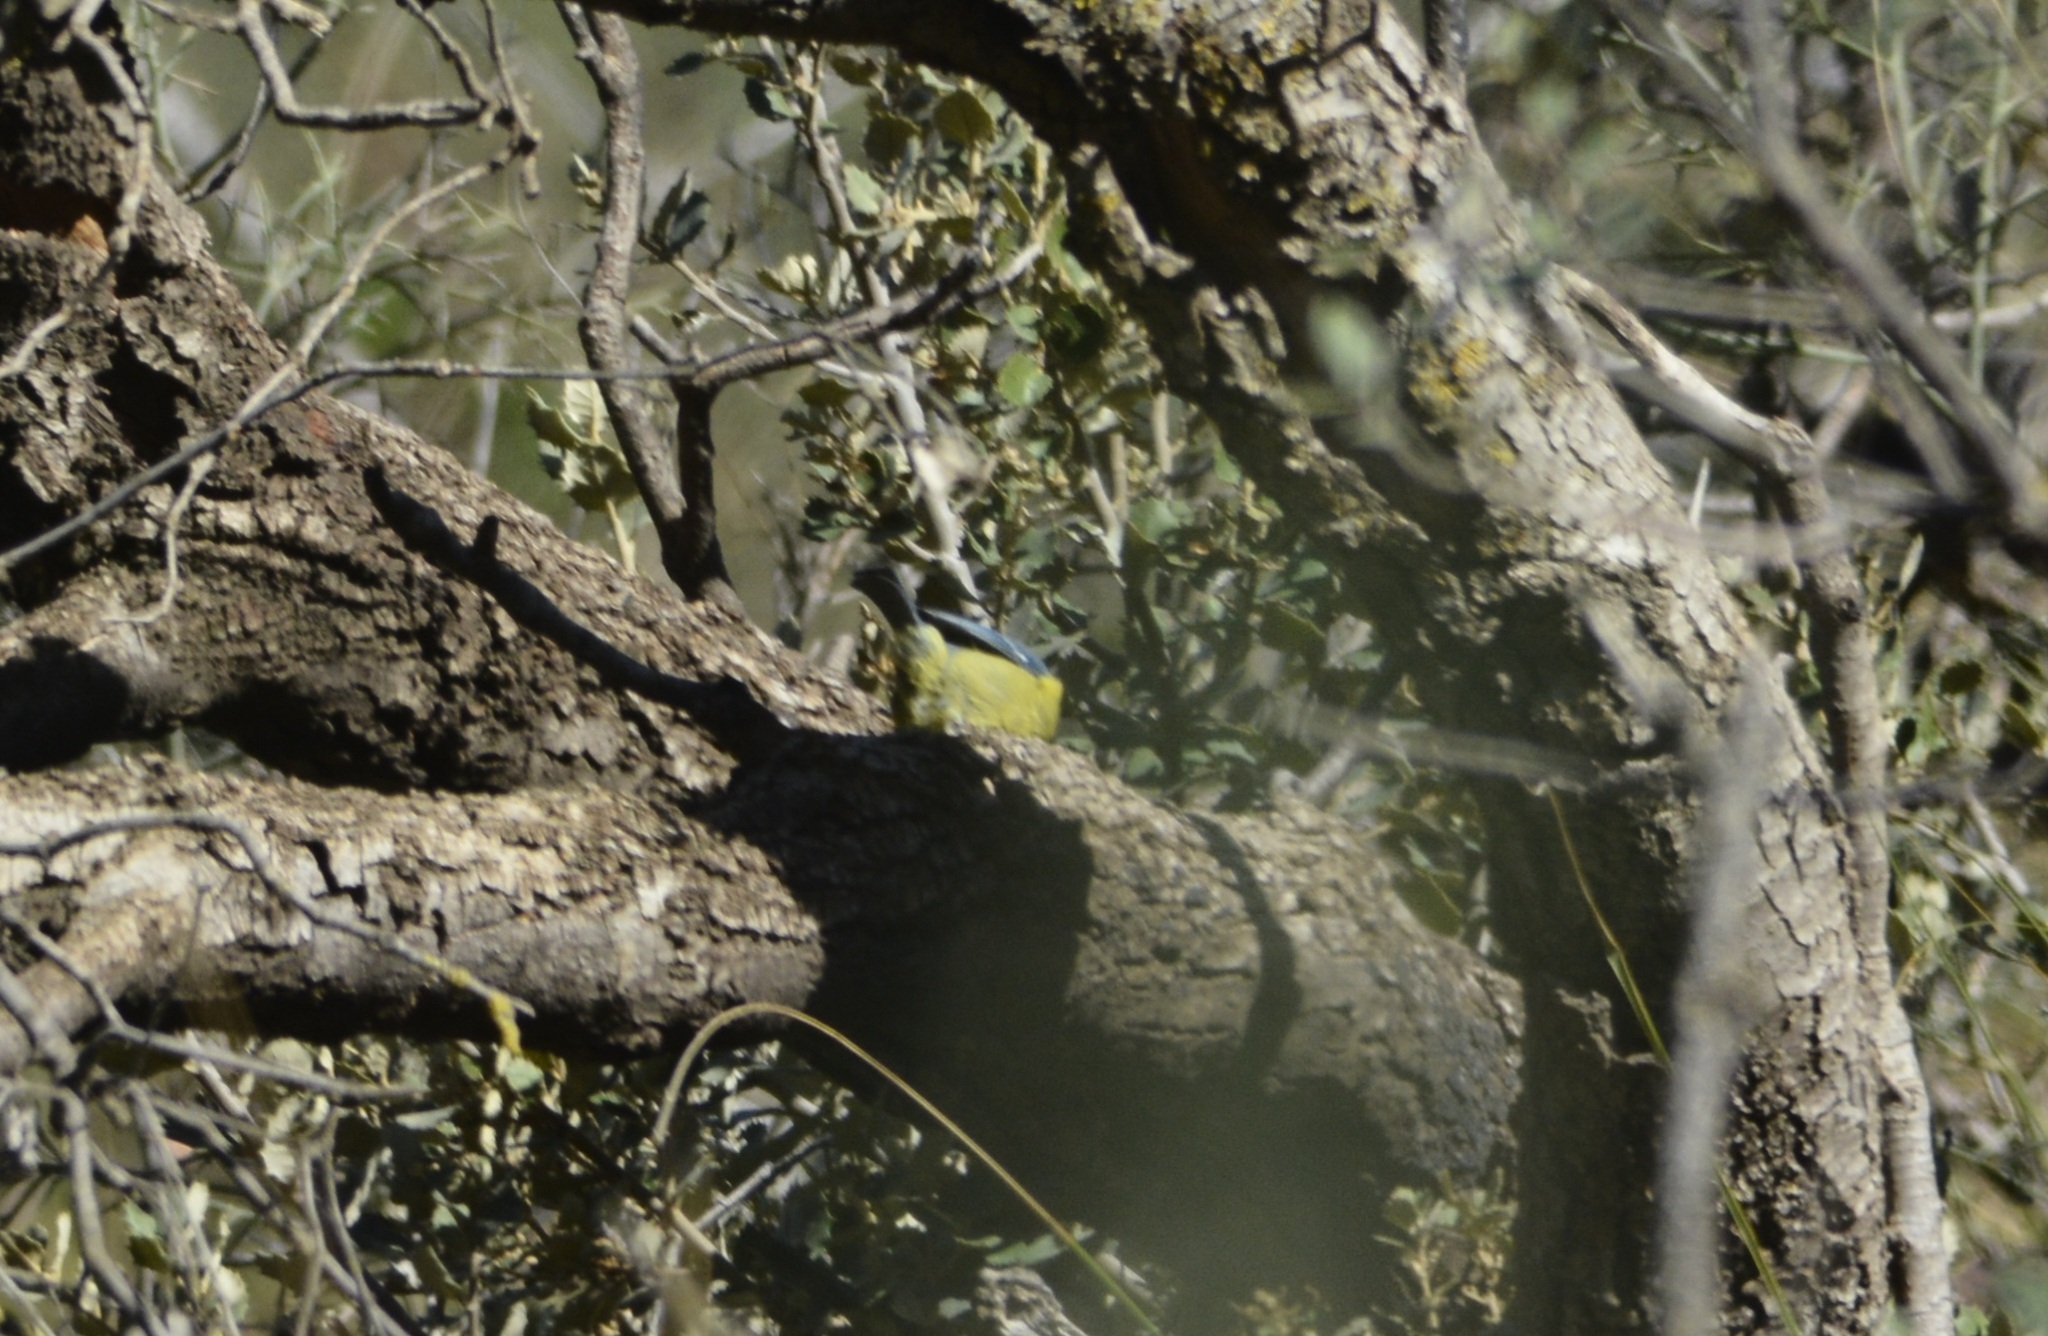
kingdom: Animalia
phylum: Chordata
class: Aves
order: Passeriformes
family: Paridae
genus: Cyanistes
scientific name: Cyanistes teneriffae
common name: African blue tit
